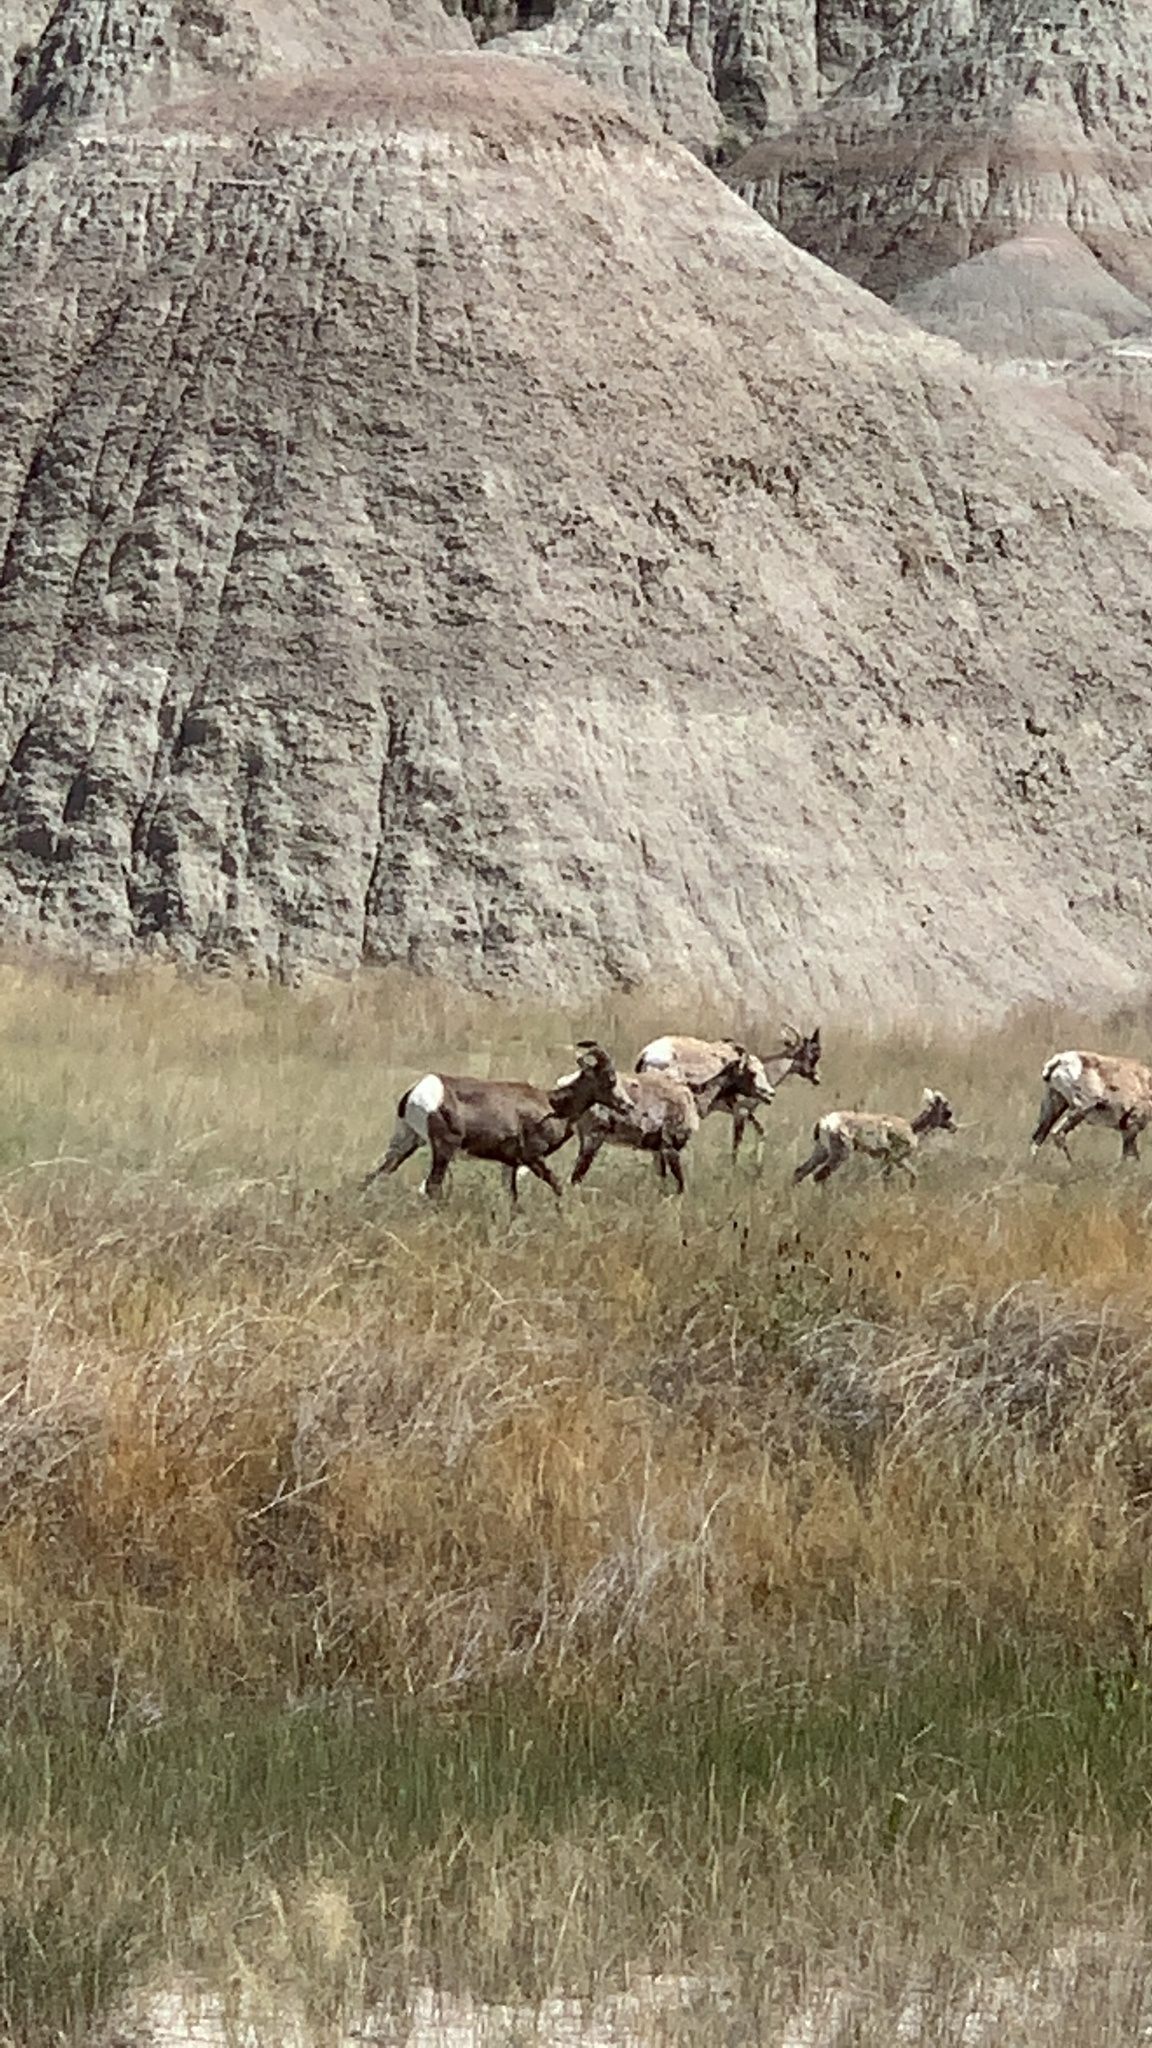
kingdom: Animalia
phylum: Chordata
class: Mammalia
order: Artiodactyla
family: Bovidae
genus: Ovis
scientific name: Ovis canadensis
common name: Bighorn sheep
